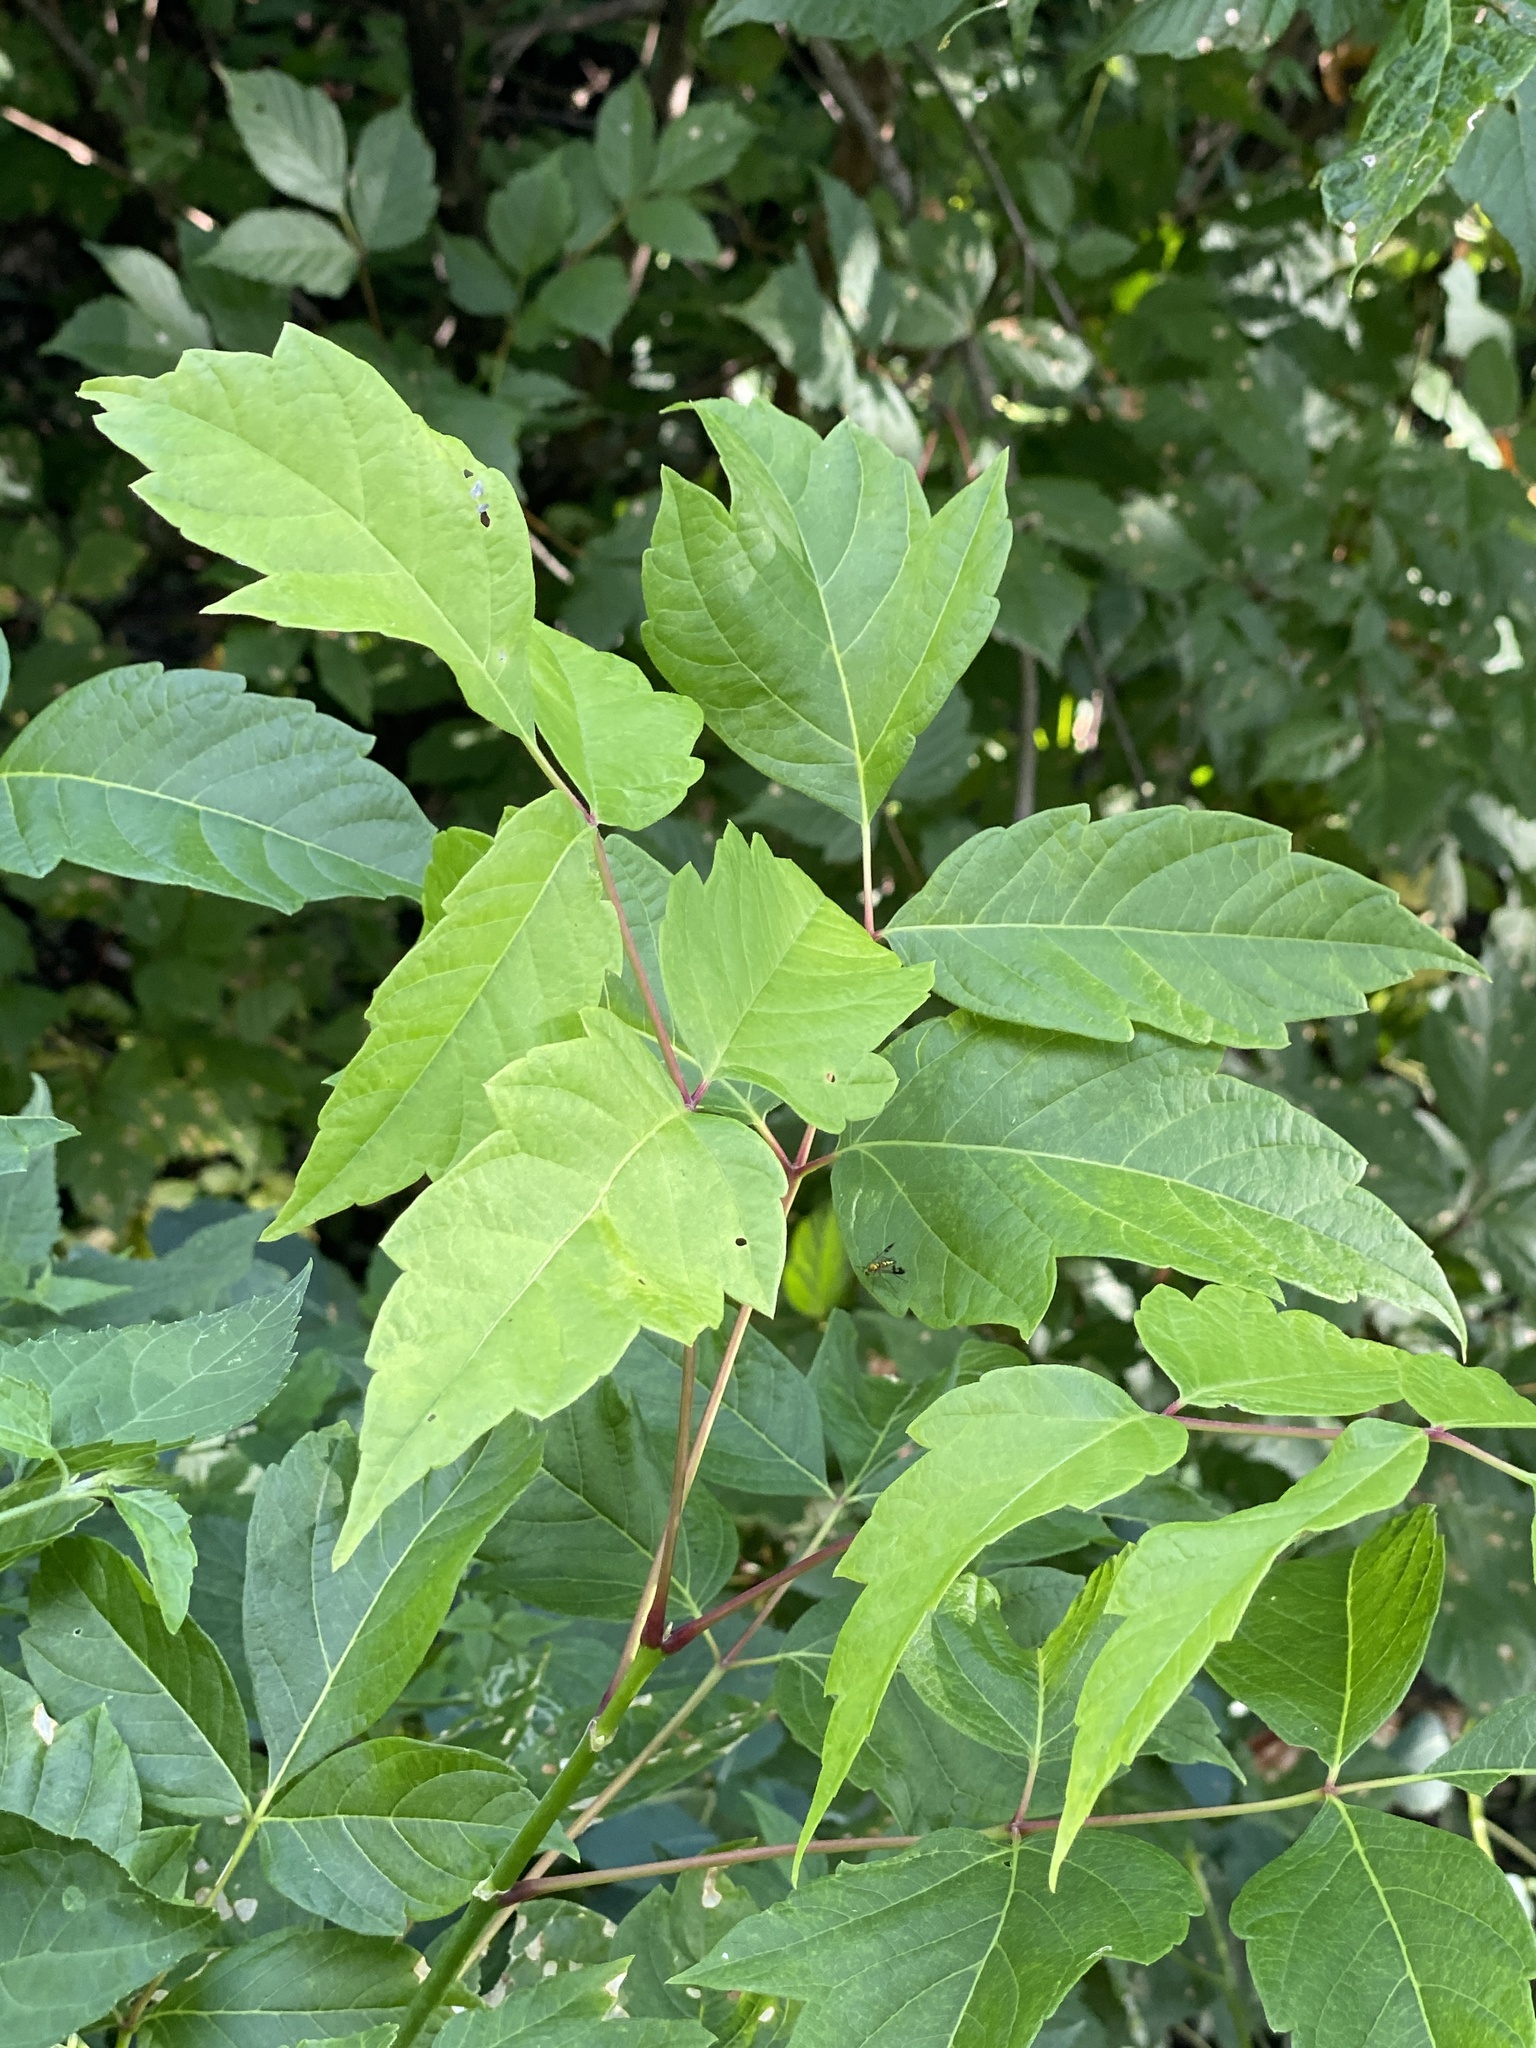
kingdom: Plantae
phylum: Tracheophyta
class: Magnoliopsida
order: Sapindales
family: Sapindaceae
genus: Acer
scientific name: Acer negundo
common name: Ashleaf maple
